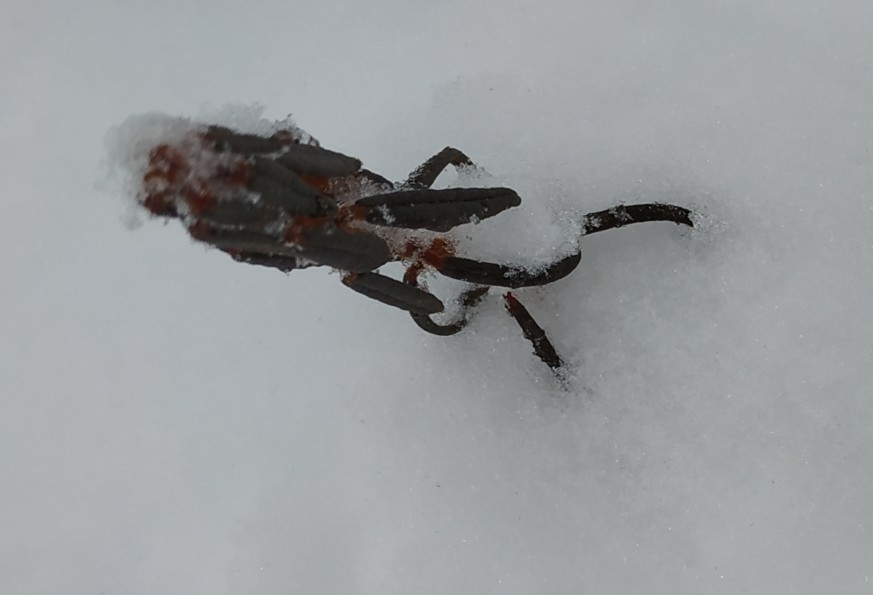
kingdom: Plantae
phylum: Tracheophyta
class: Magnoliopsida
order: Ericales
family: Ericaceae
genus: Rhododendron
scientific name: Rhododendron tomentosum
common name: Marsh labrador tea
